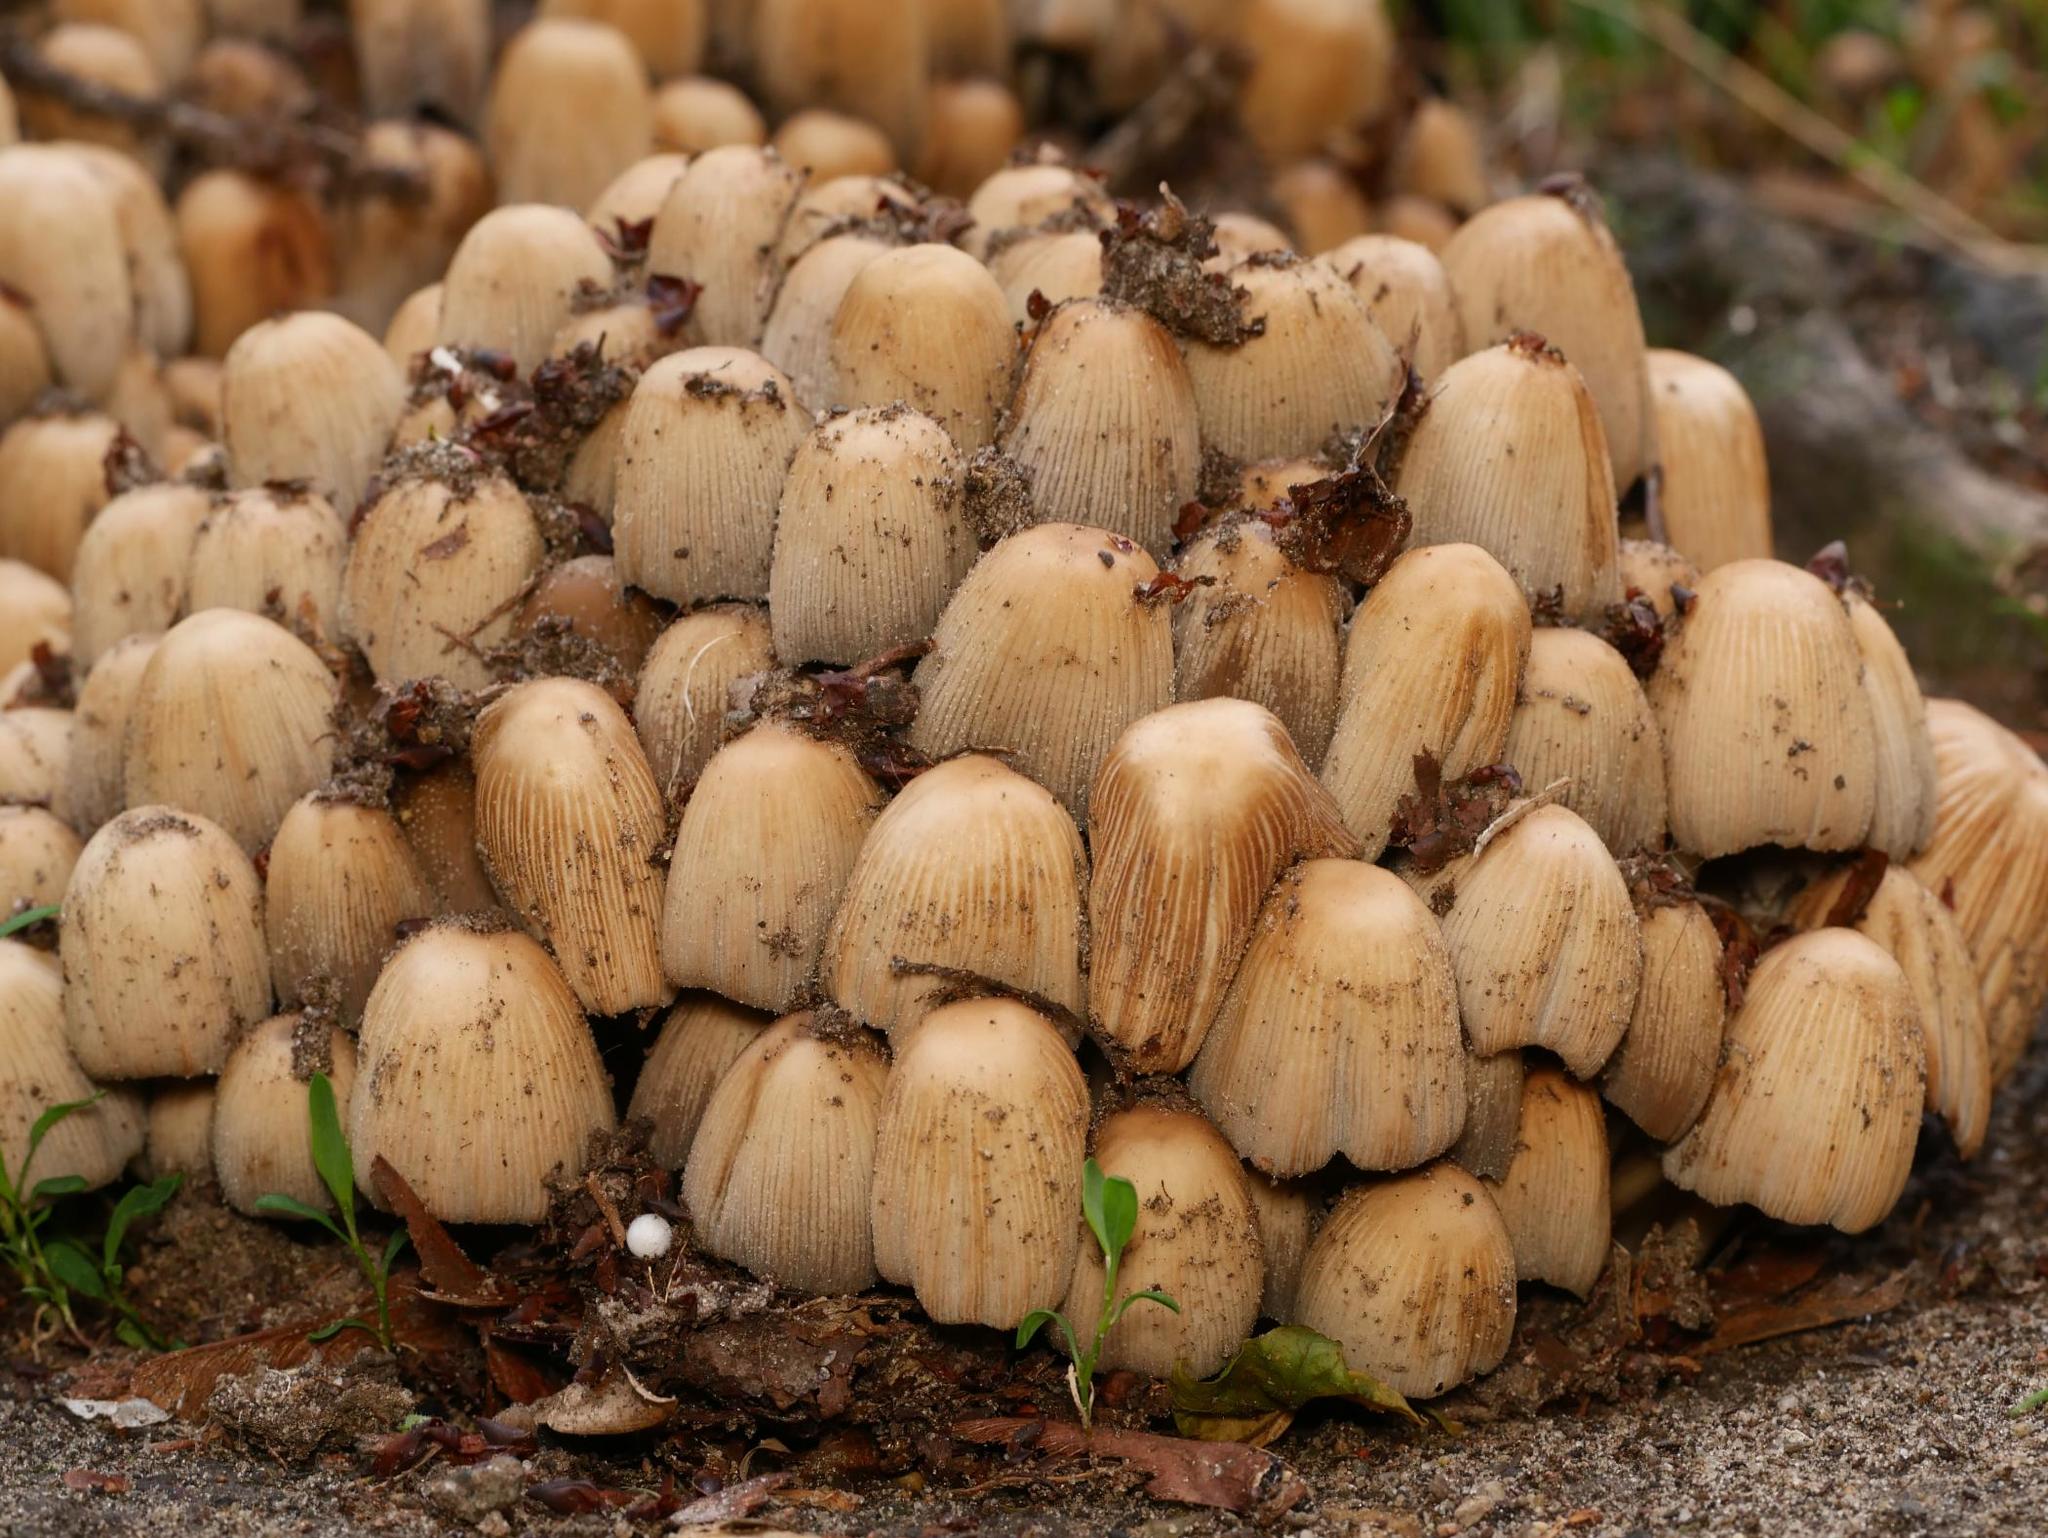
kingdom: Fungi
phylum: Basidiomycota
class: Agaricomycetes
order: Agaricales
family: Psathyrellaceae
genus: Coprinellus
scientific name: Coprinellus micaceus
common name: Glistening ink-cap
